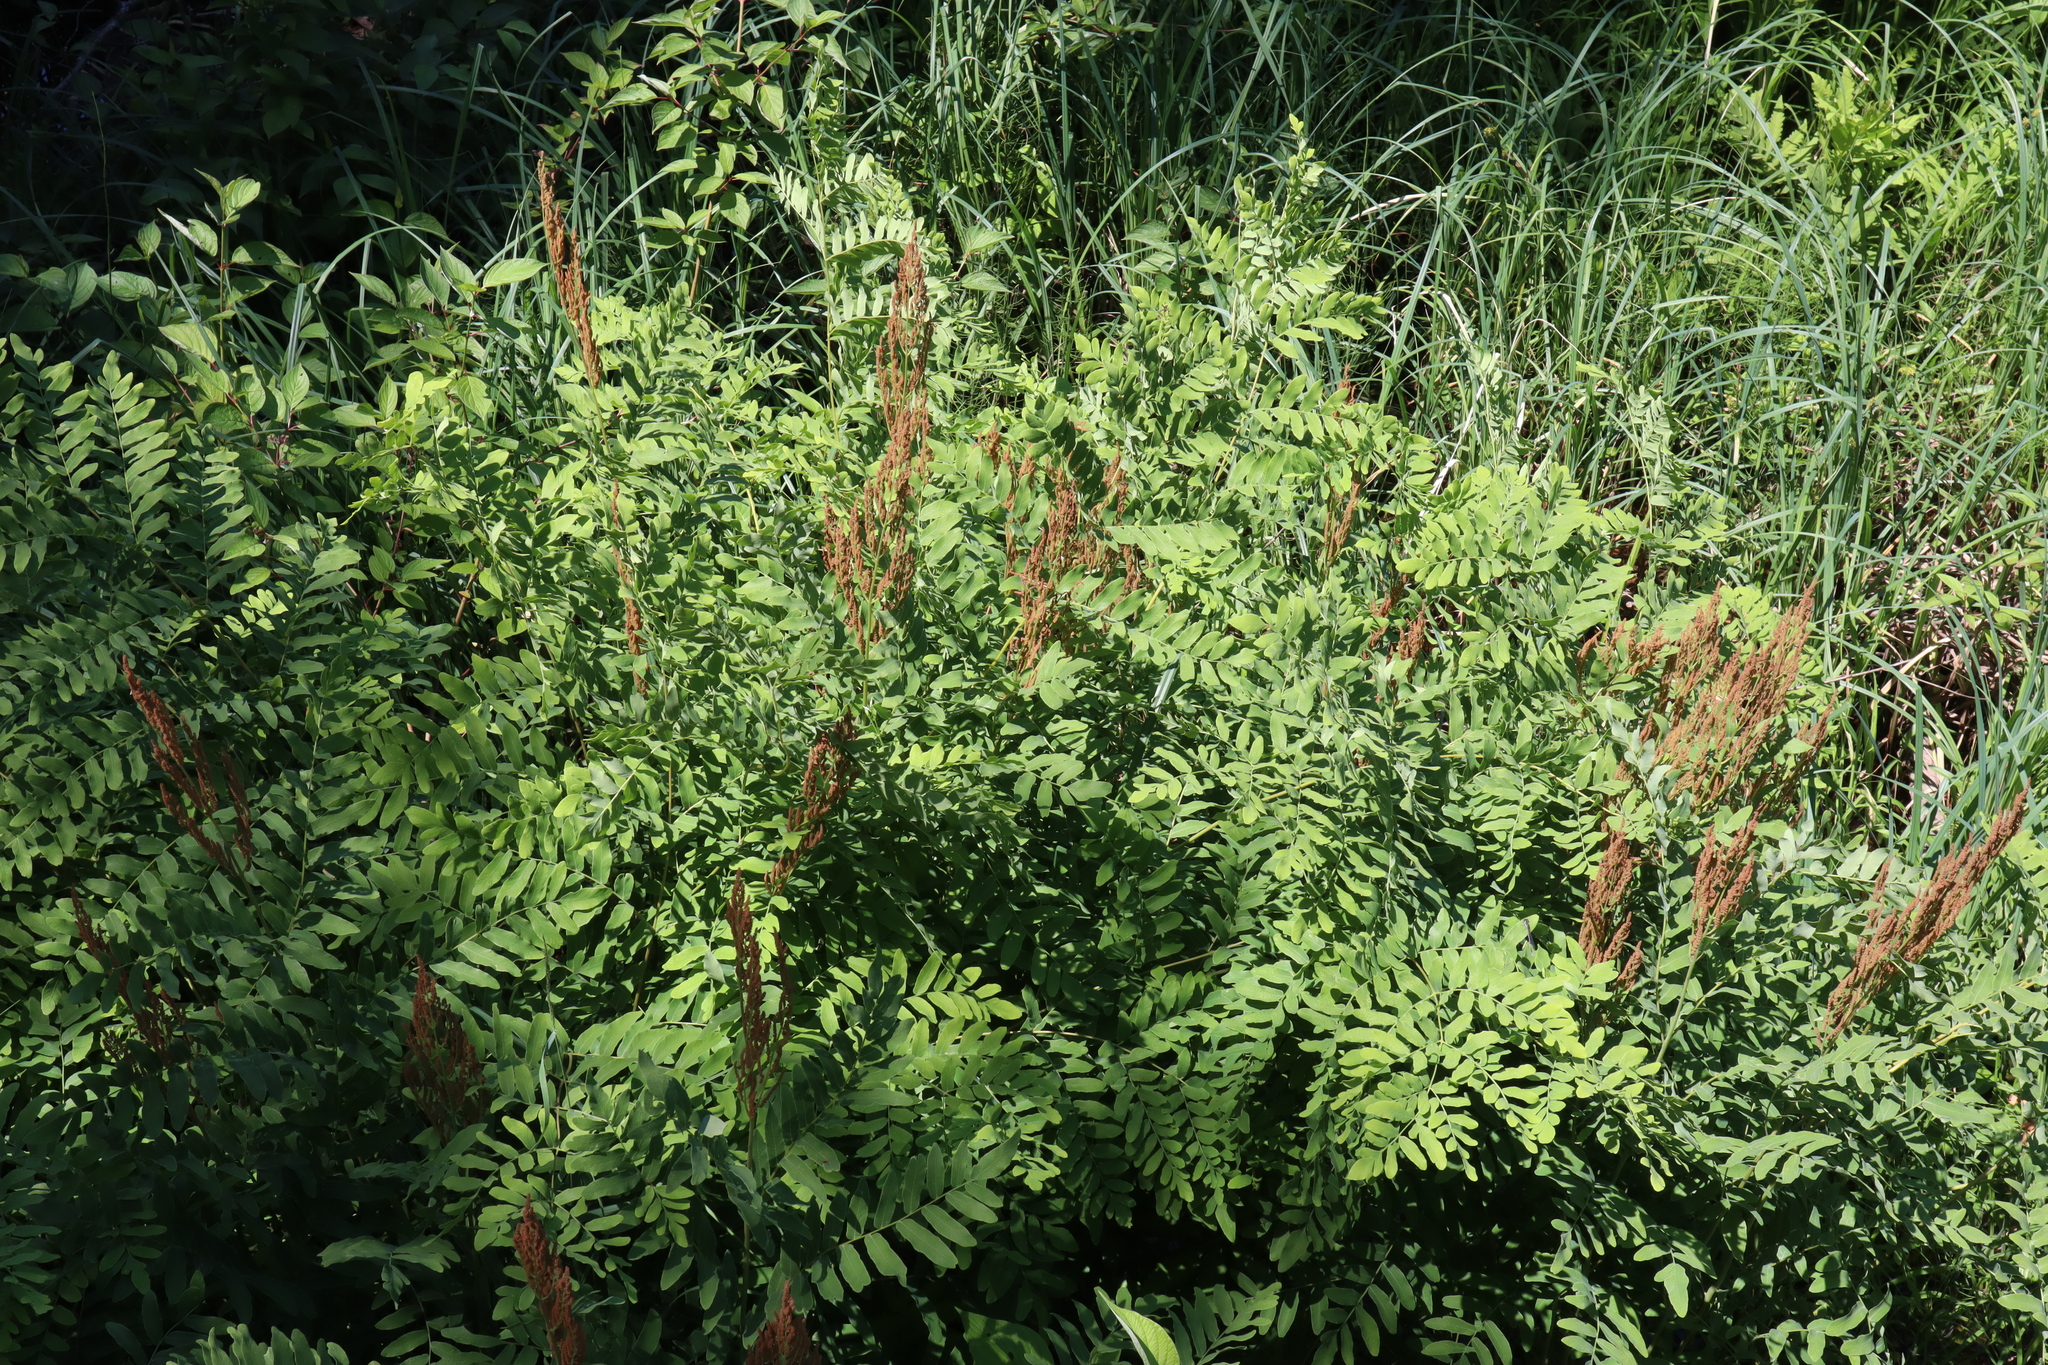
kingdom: Plantae
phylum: Tracheophyta
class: Polypodiopsida
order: Osmundales
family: Osmundaceae
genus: Osmunda
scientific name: Osmunda spectabilis
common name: American royal fern
